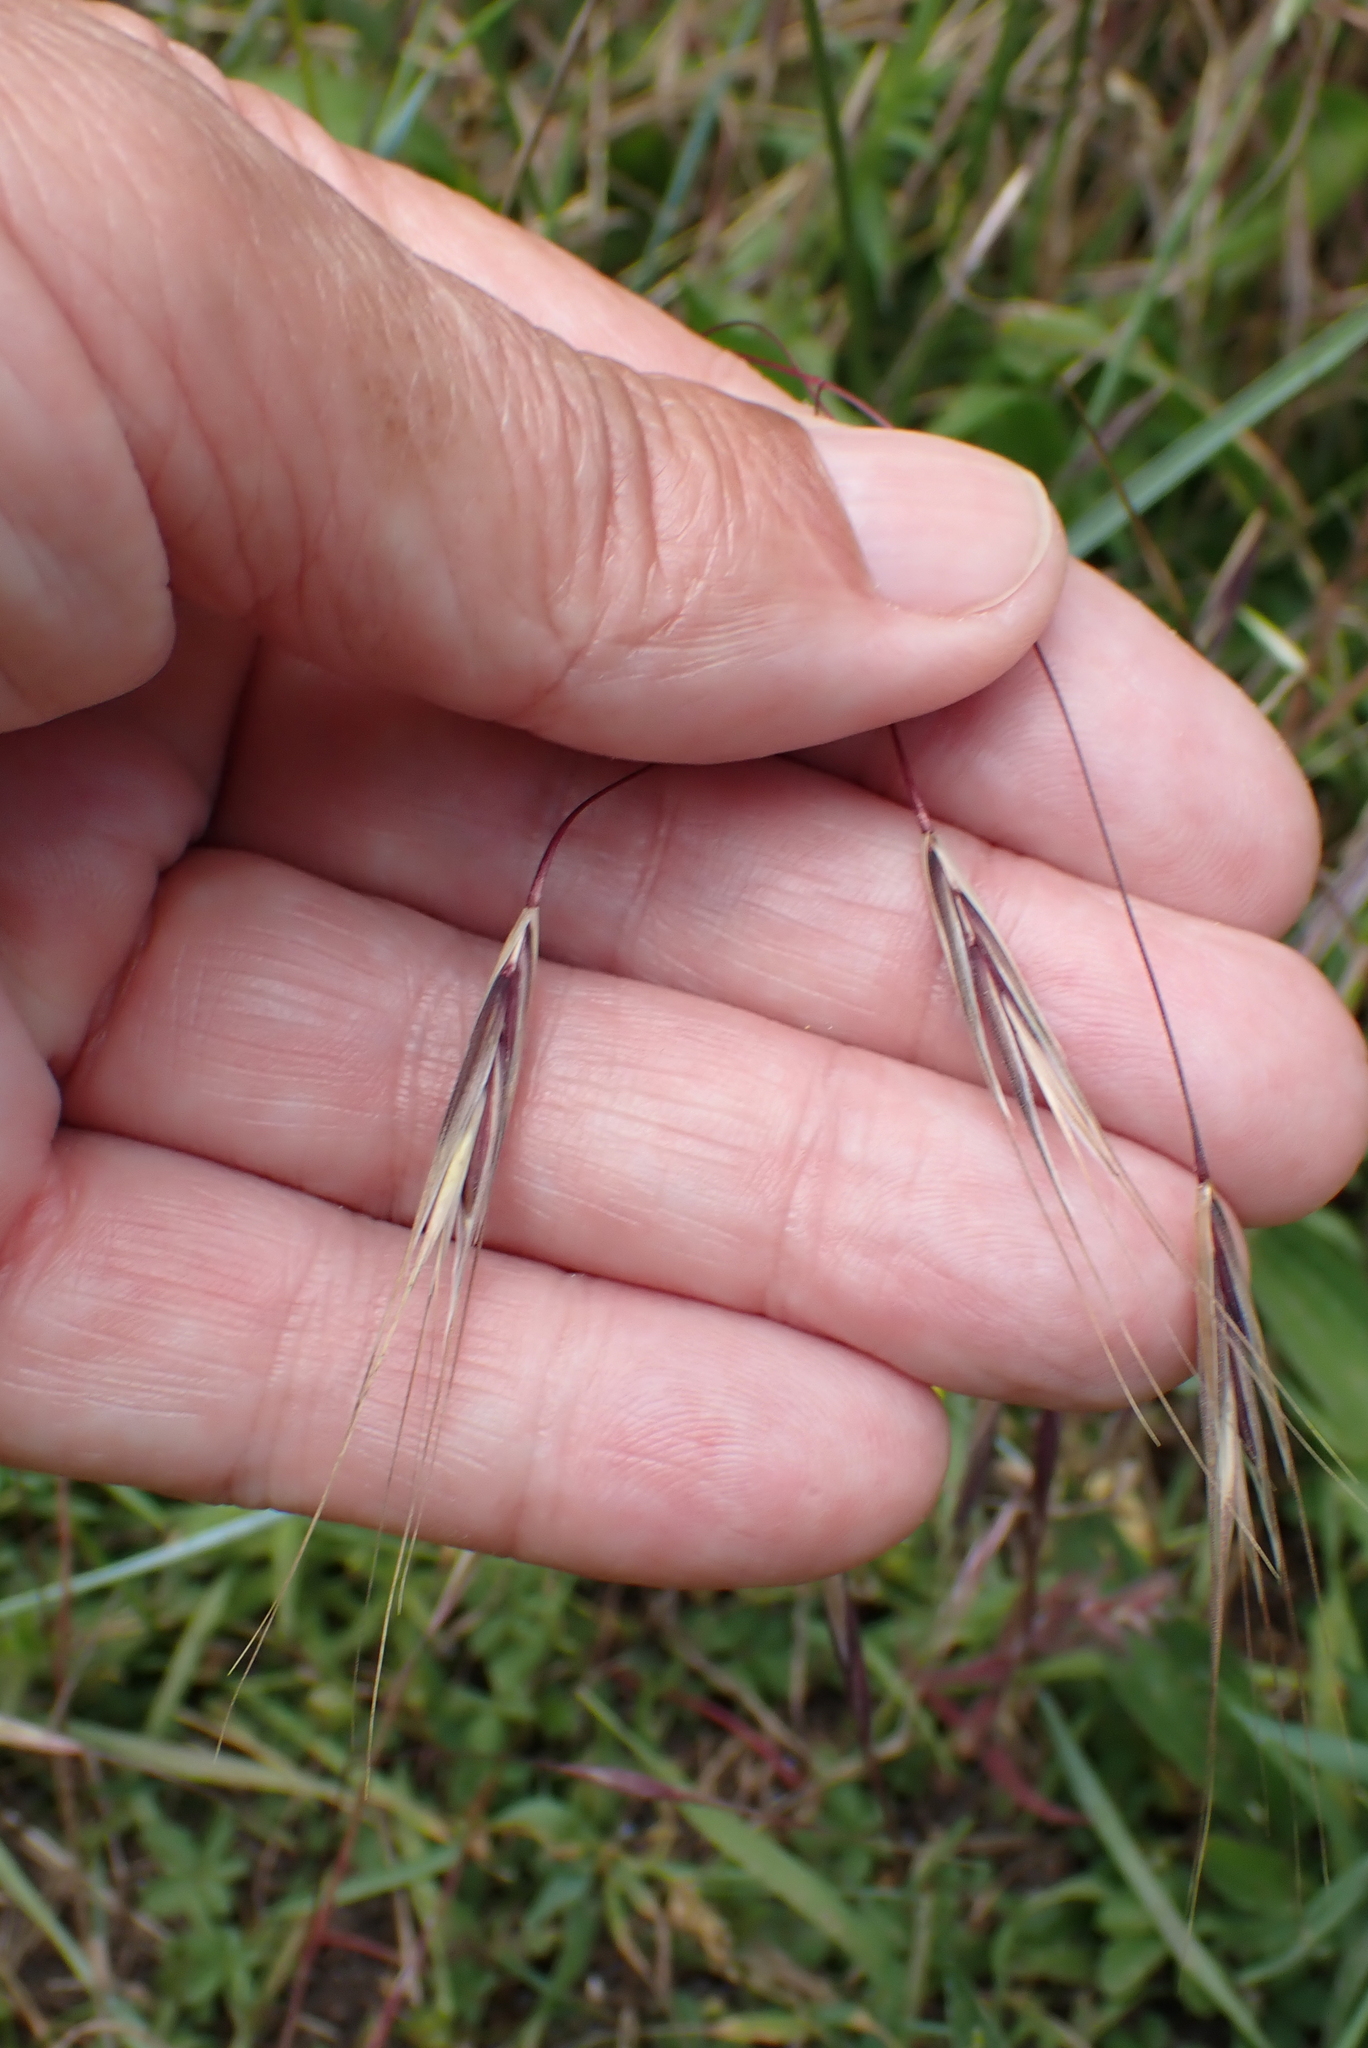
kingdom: Plantae
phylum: Tracheophyta
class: Liliopsida
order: Poales
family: Poaceae
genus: Bromus
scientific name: Bromus sterilis
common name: Poverty brome
